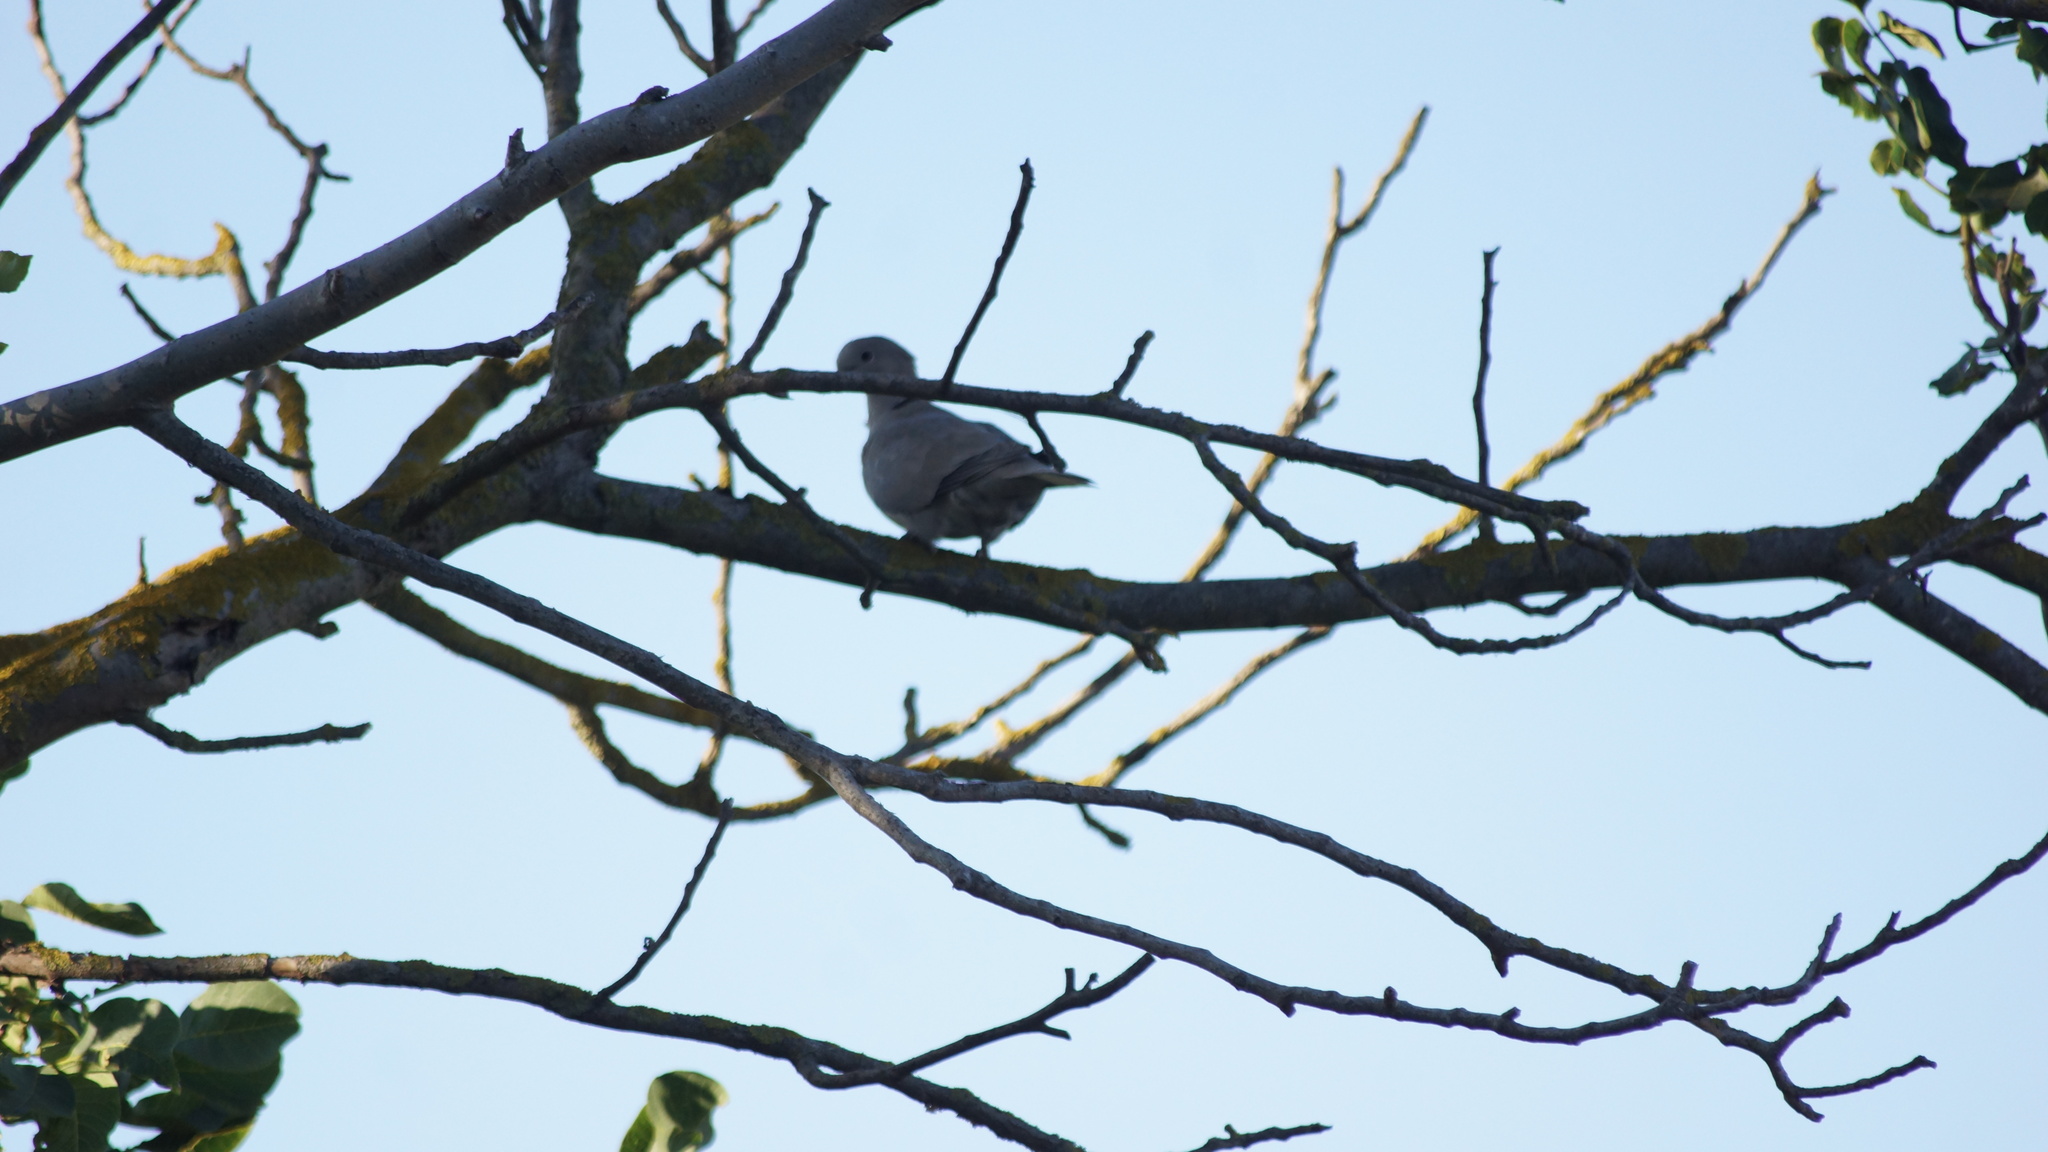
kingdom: Animalia
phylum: Chordata
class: Aves
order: Columbiformes
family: Columbidae
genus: Streptopelia
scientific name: Streptopelia decaocto
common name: Eurasian collared dove
